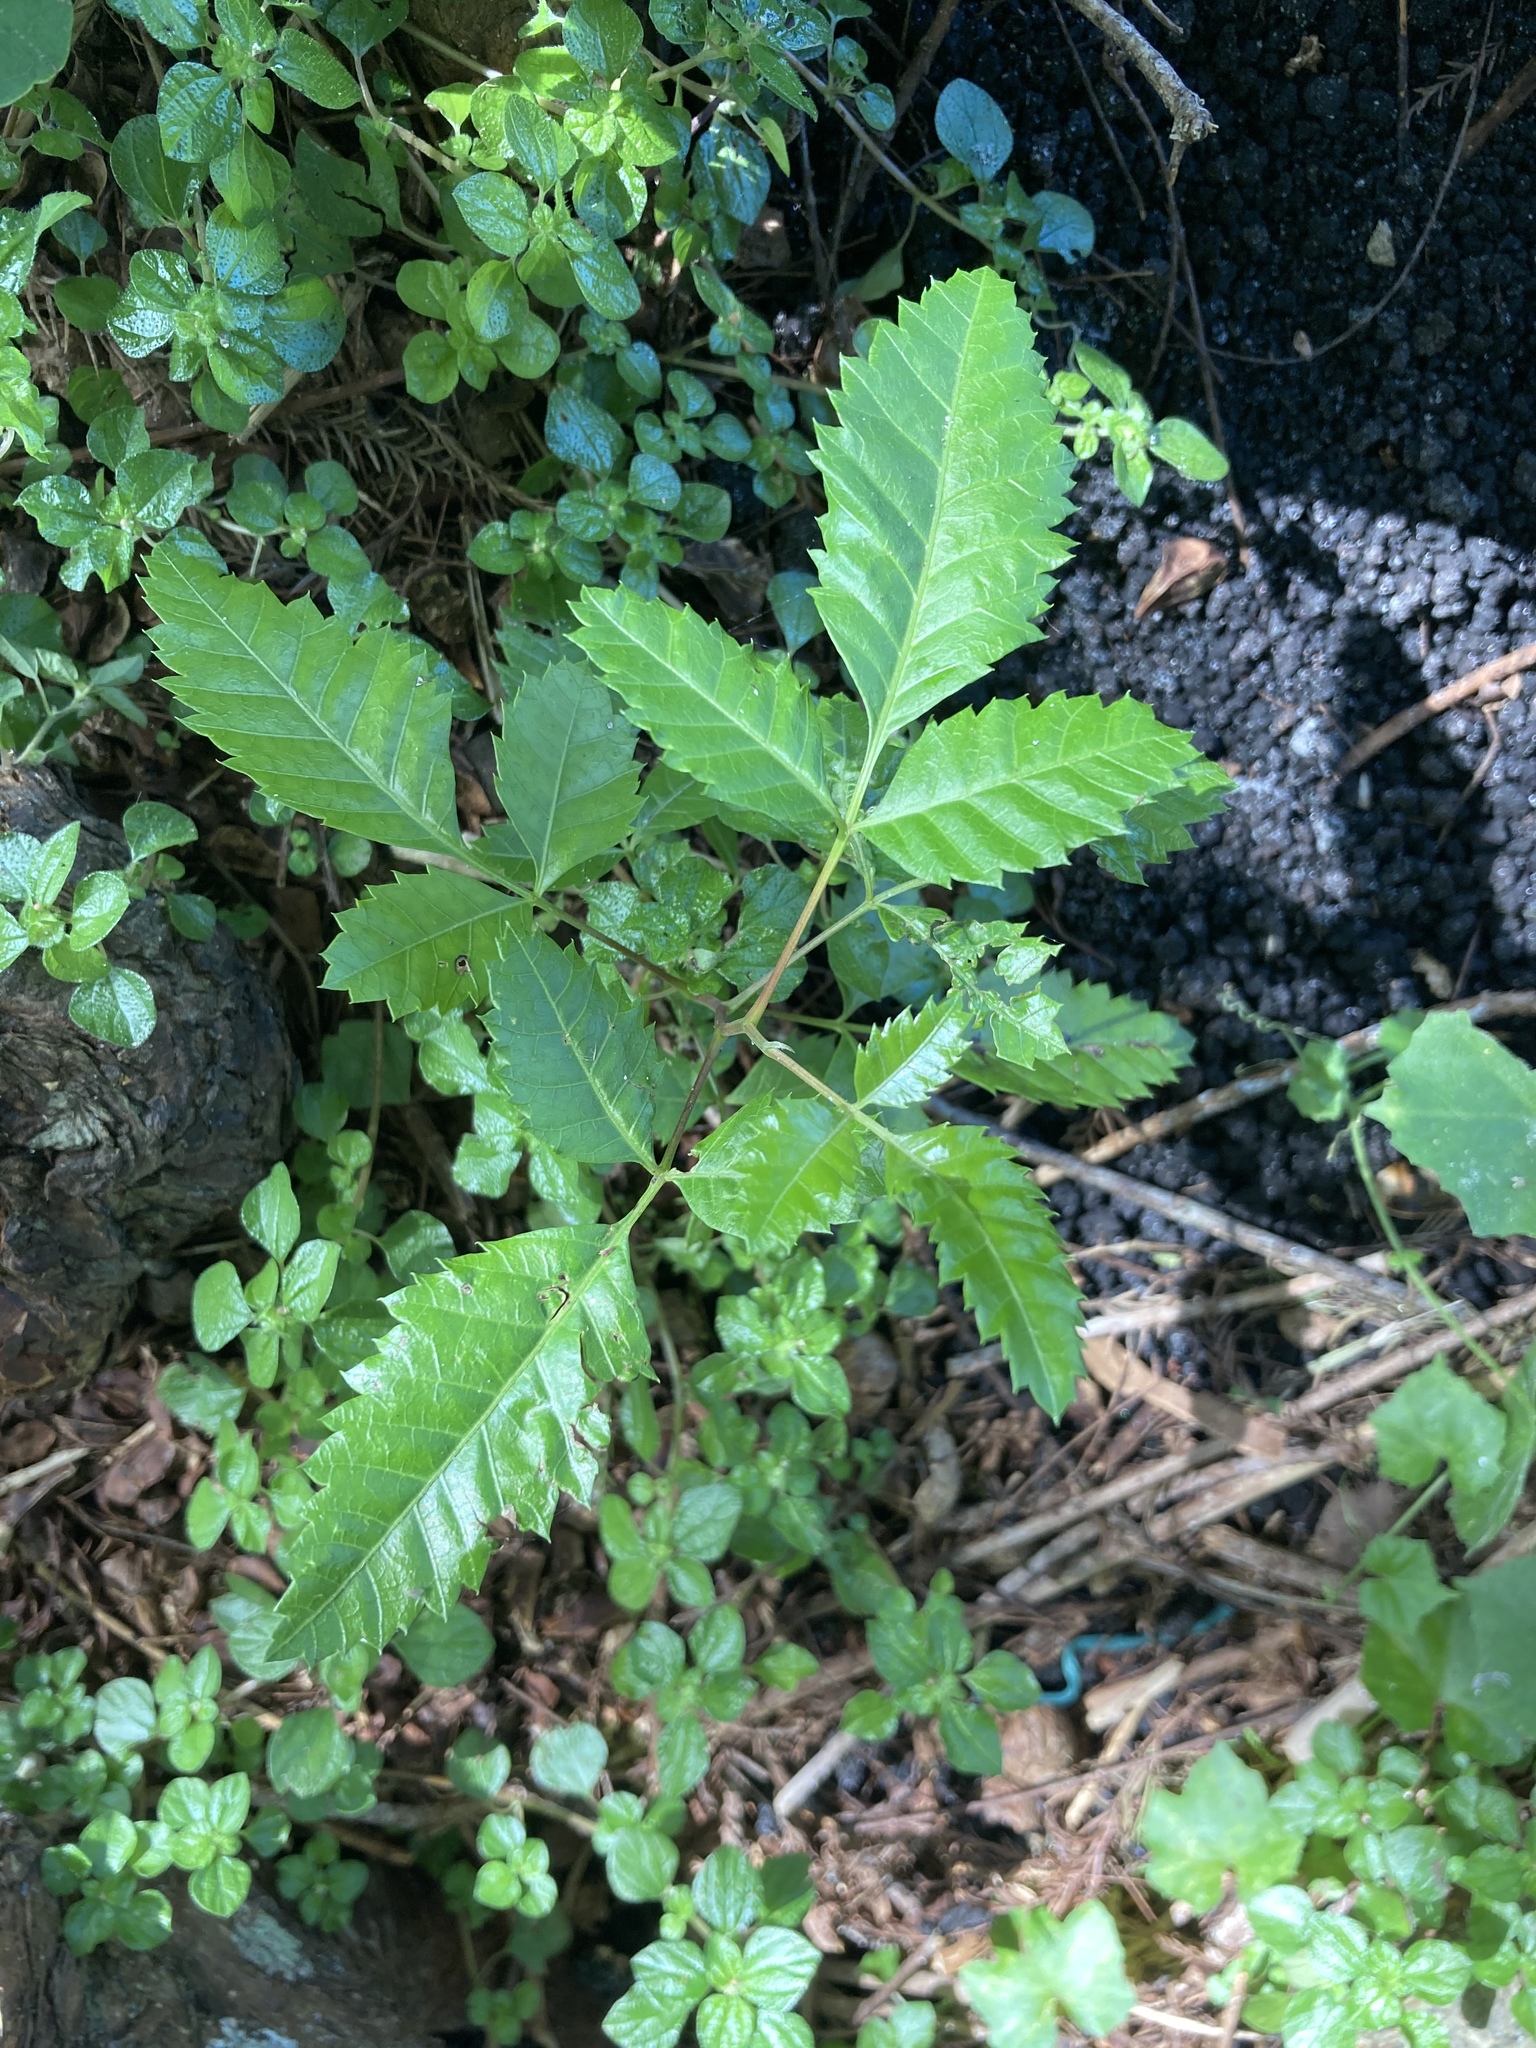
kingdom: Plantae
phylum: Tracheophyta
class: Magnoliopsida
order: Sapindales
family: Anacardiaceae
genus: Schinus
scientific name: Schinus terebinthifolia
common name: Brazilian peppertree
